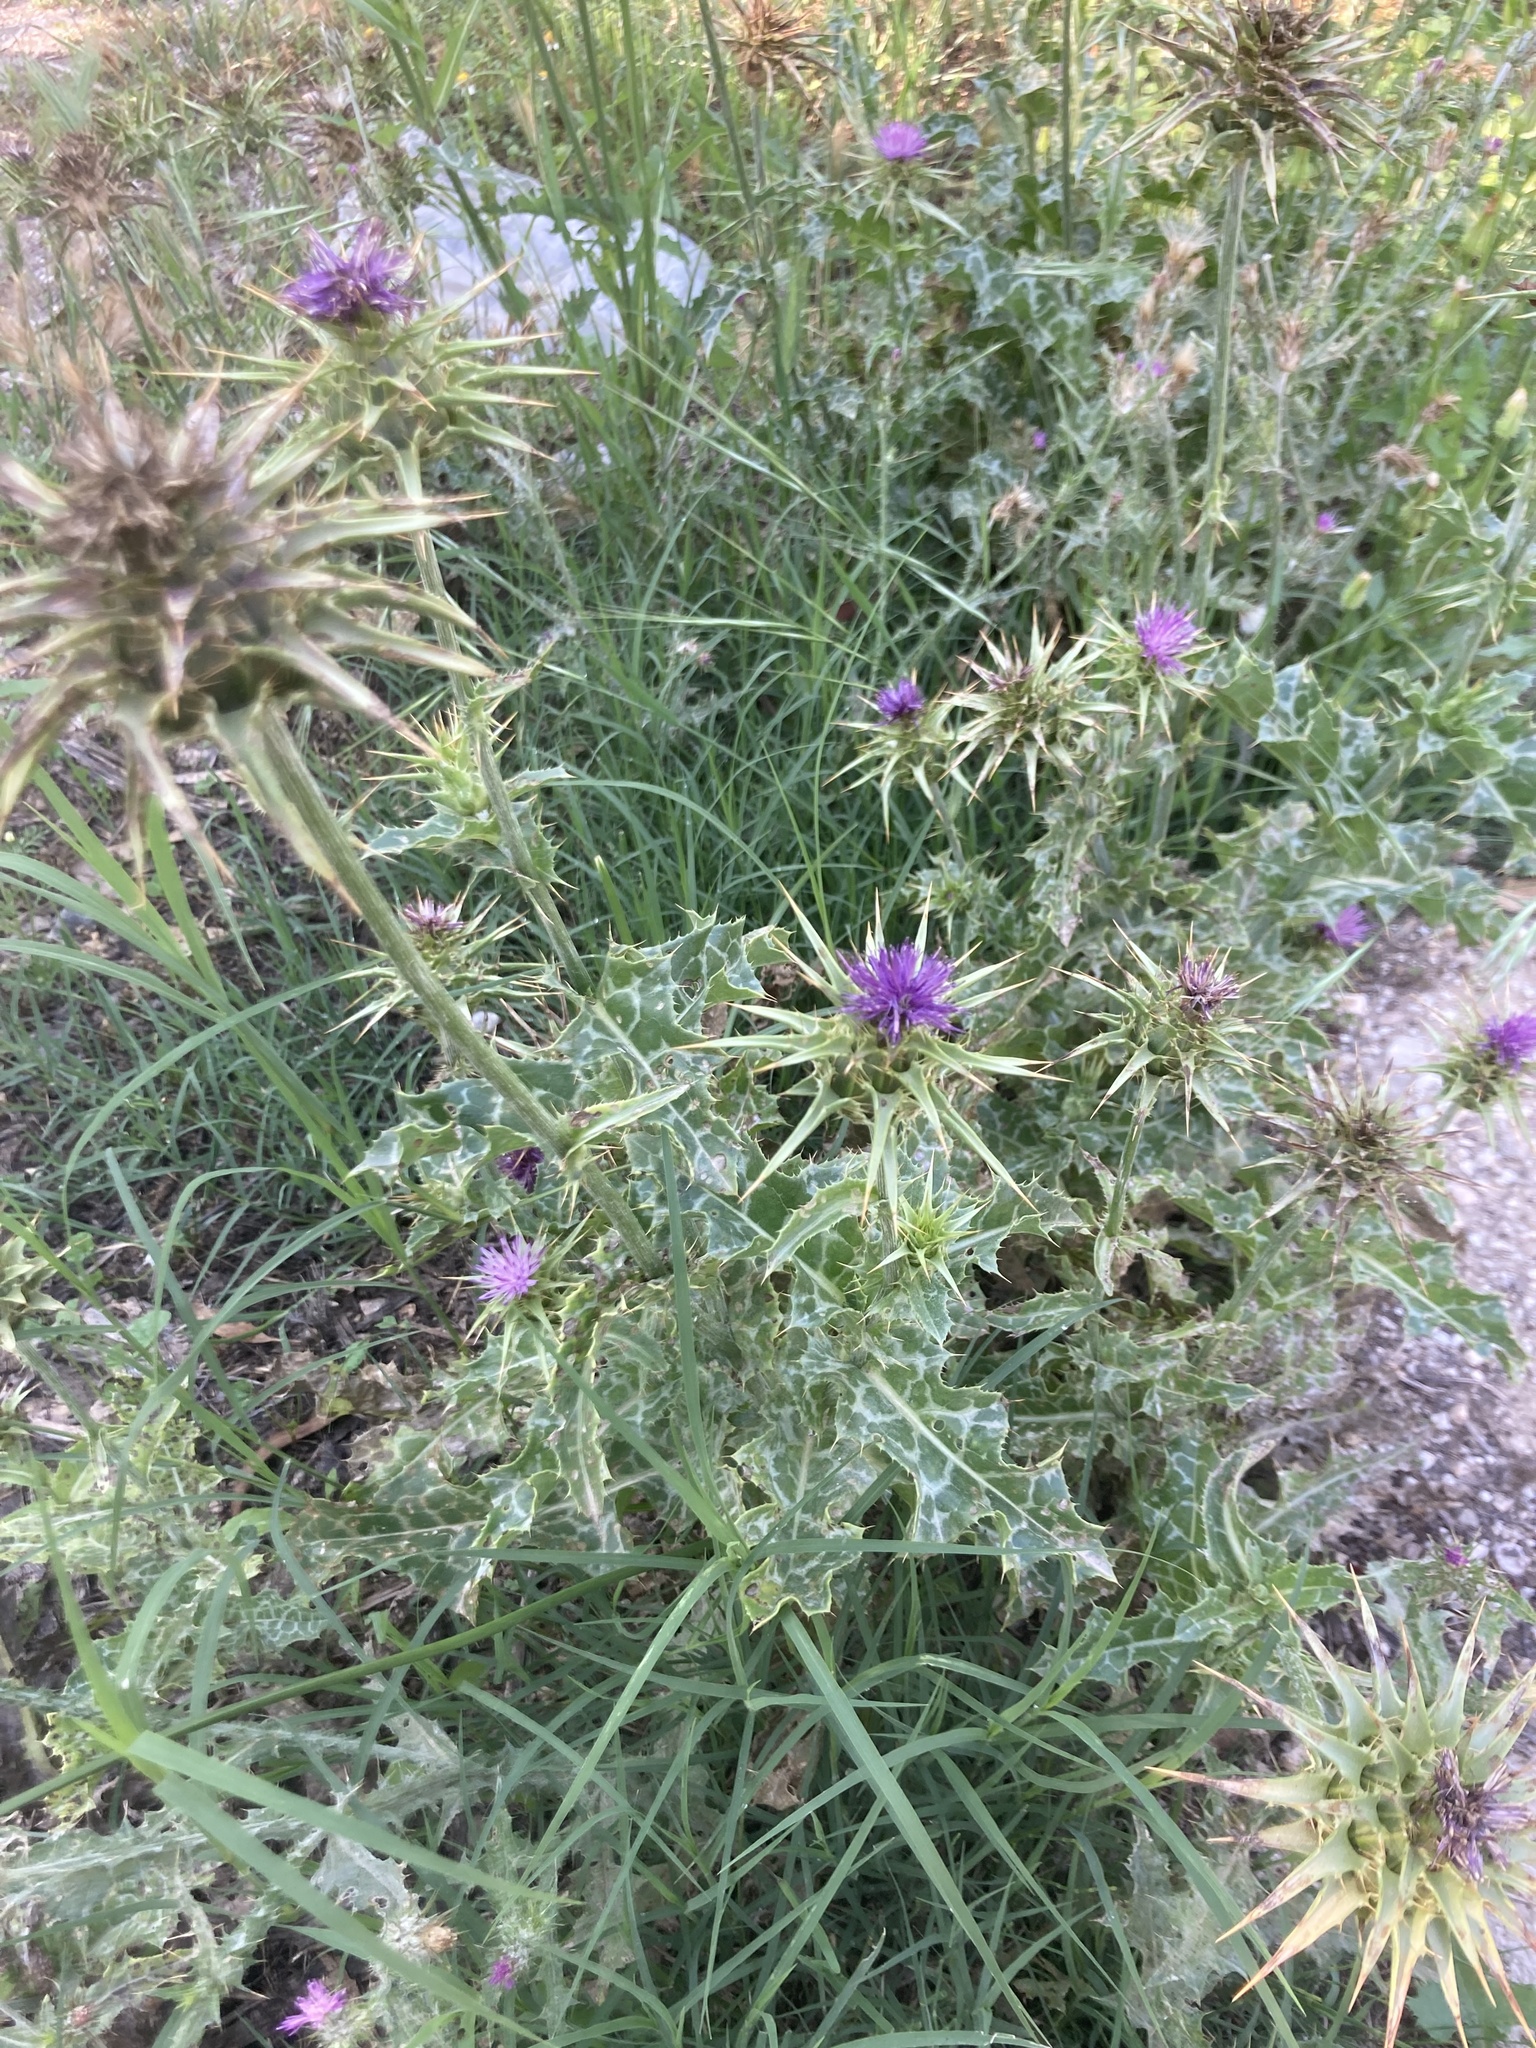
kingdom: Plantae
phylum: Tracheophyta
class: Magnoliopsida
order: Asterales
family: Asteraceae
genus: Silybum
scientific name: Silybum marianum
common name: Milk thistle
